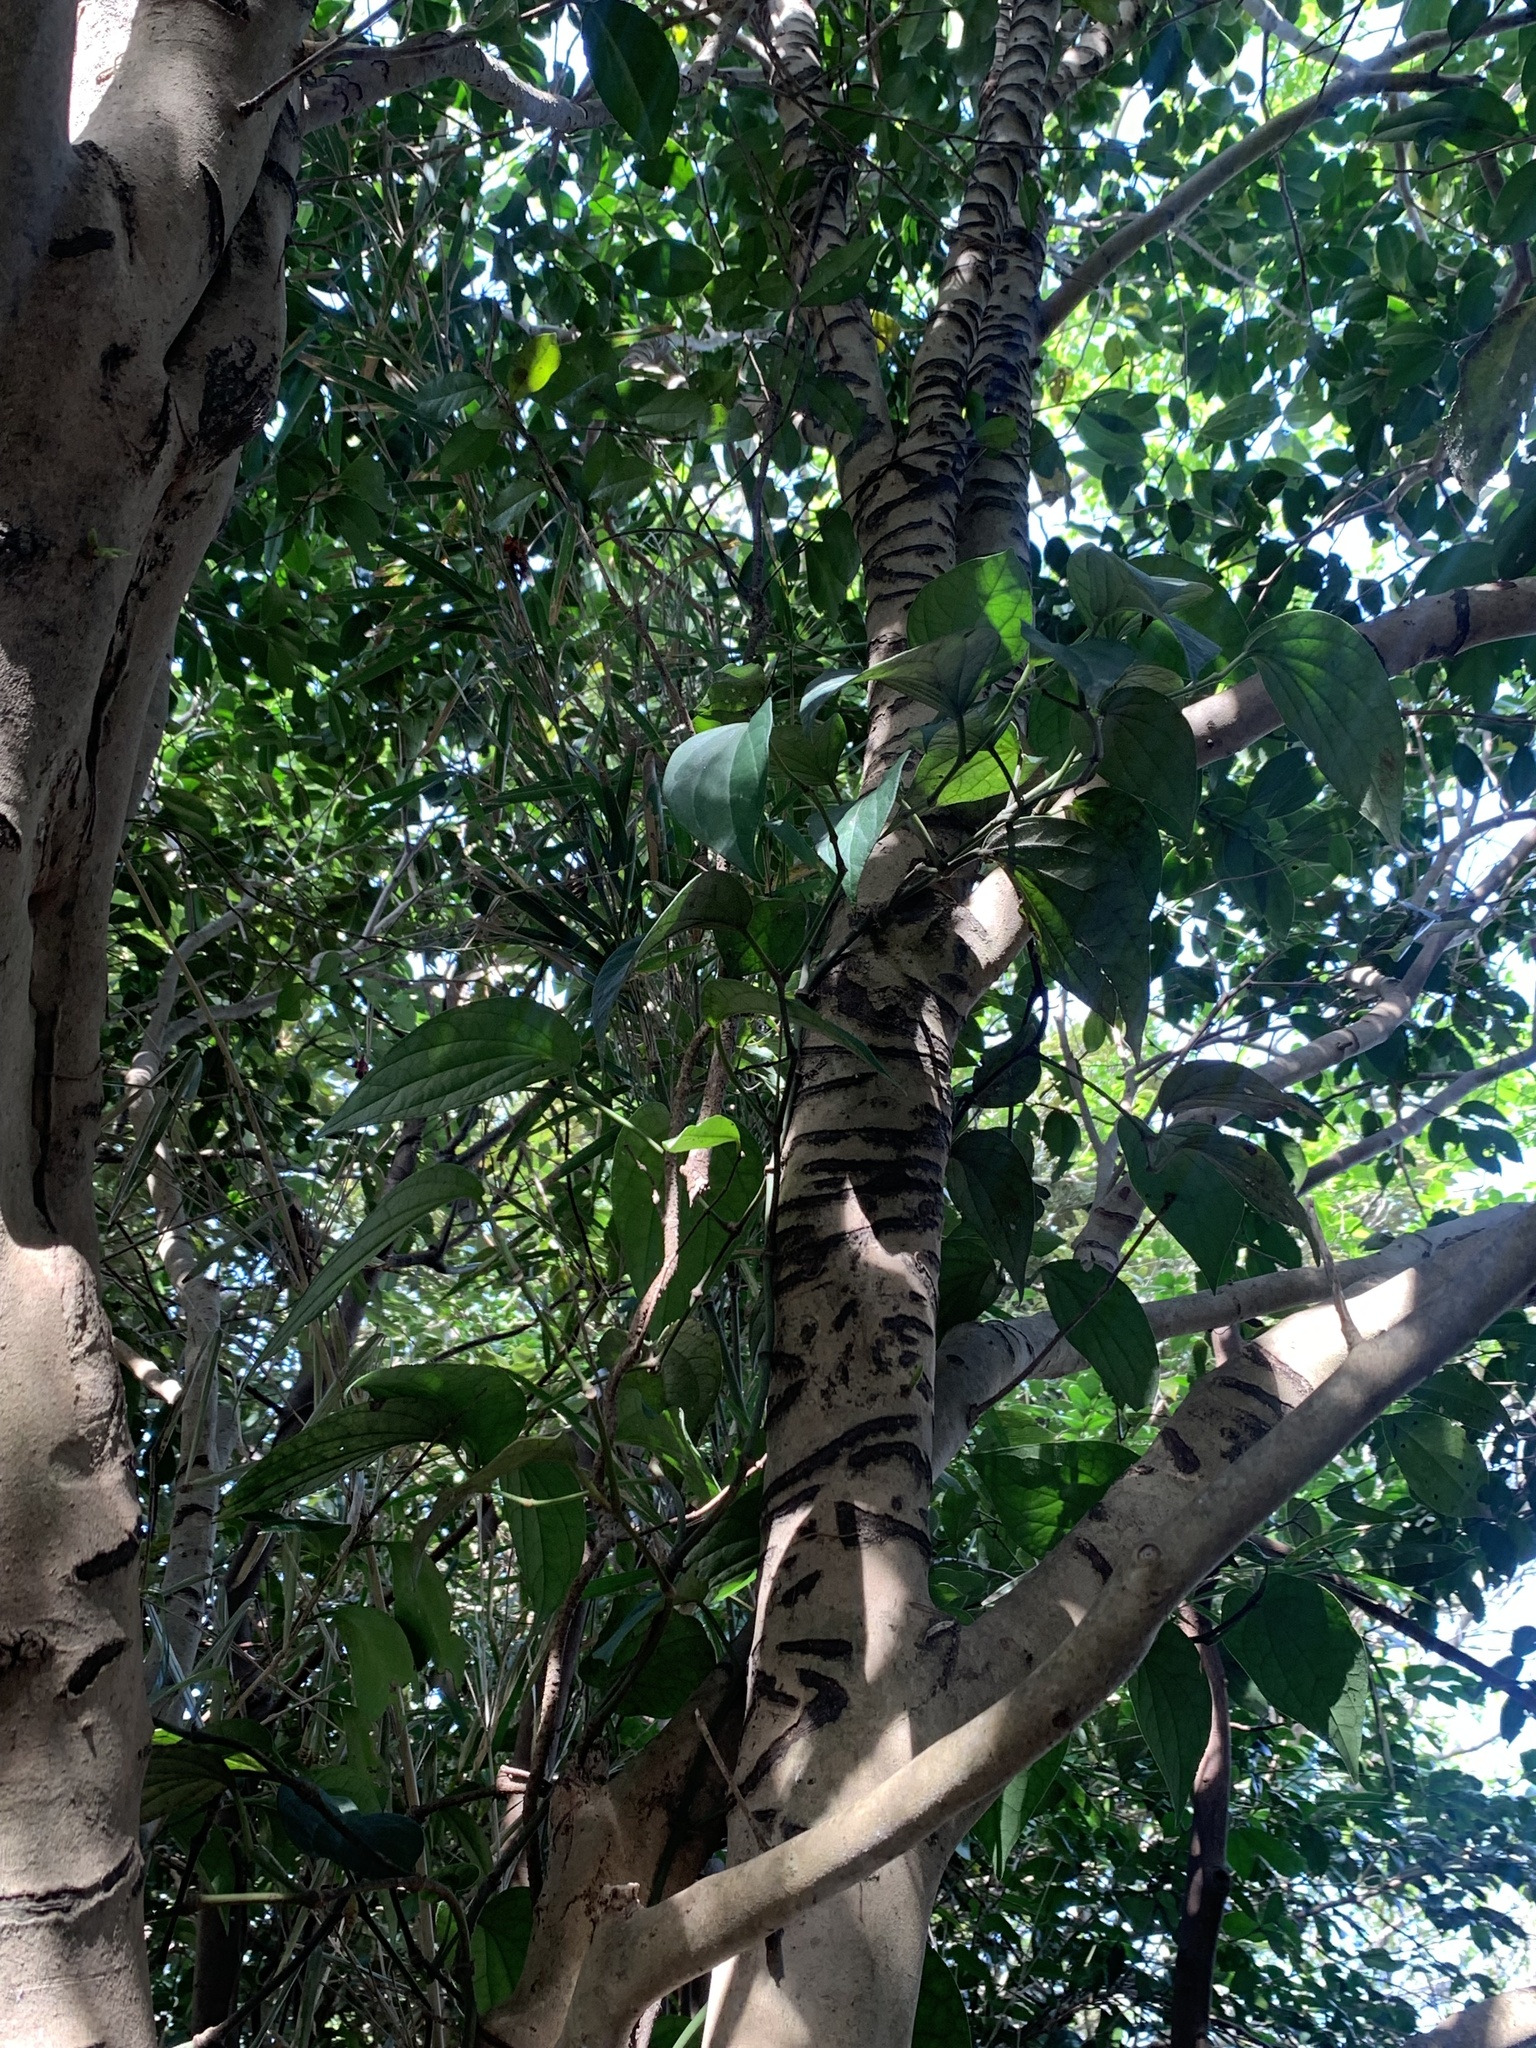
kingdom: Animalia
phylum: Chordata
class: Mammalia
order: Rodentia
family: Sciuridae
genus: Callosciurus
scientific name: Callosciurus erythraeus
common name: Pallas's squirrel
